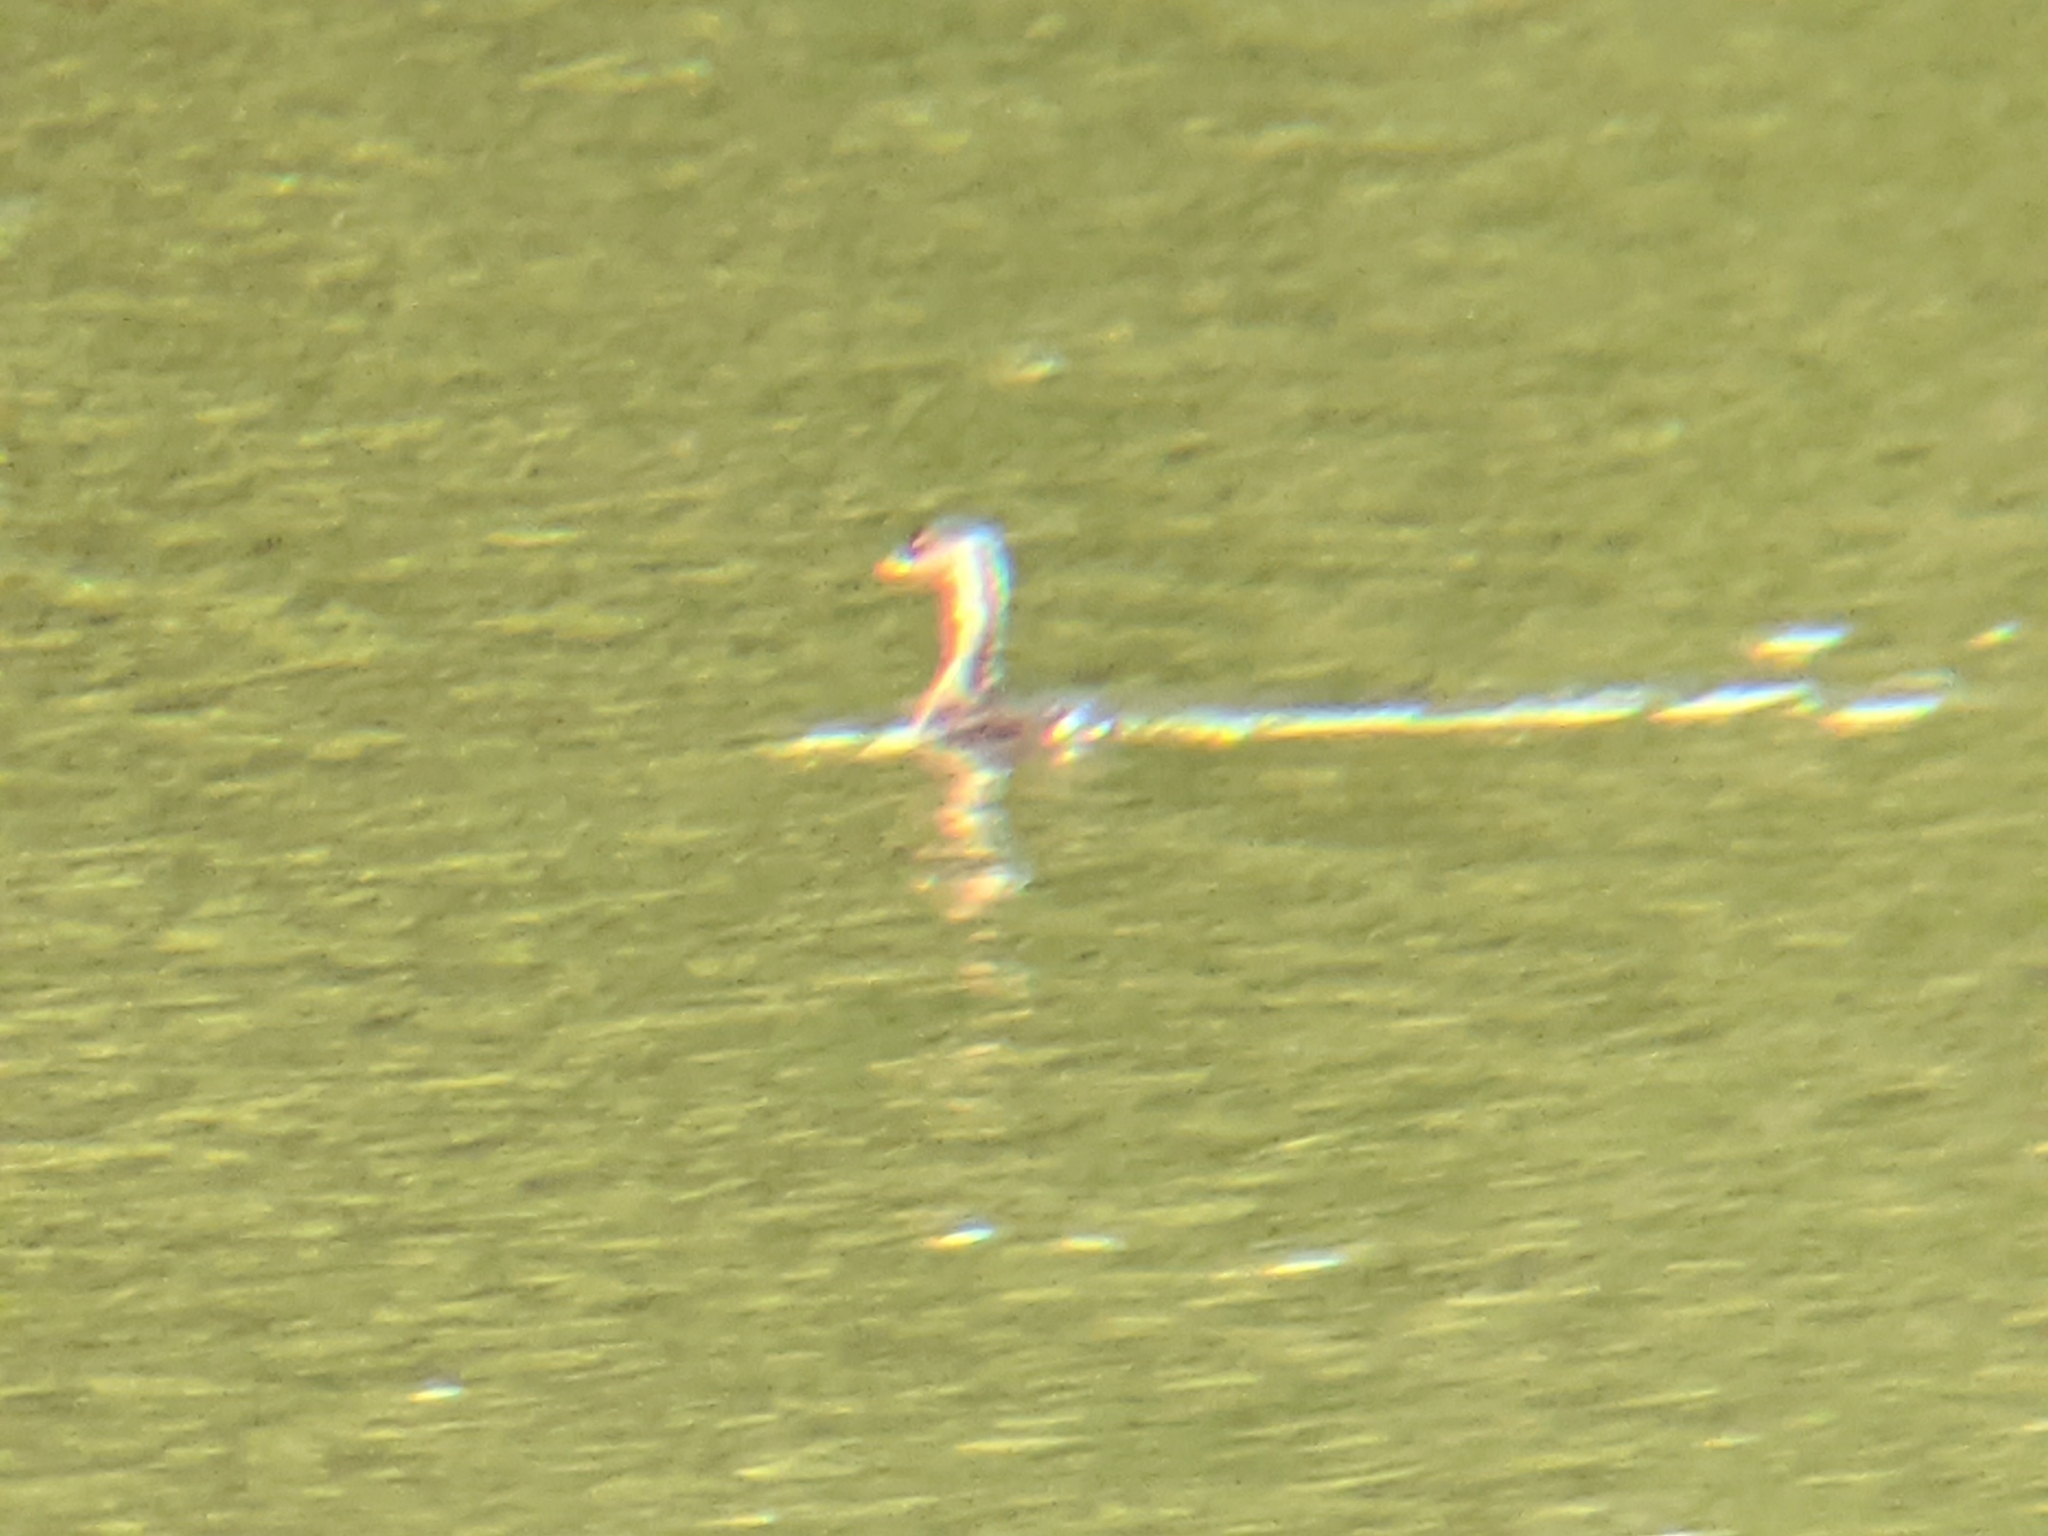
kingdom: Animalia
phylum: Chordata
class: Aves
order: Podicipediformes
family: Podicipedidae
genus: Podilymbus
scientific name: Podilymbus podiceps
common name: Pied-billed grebe
